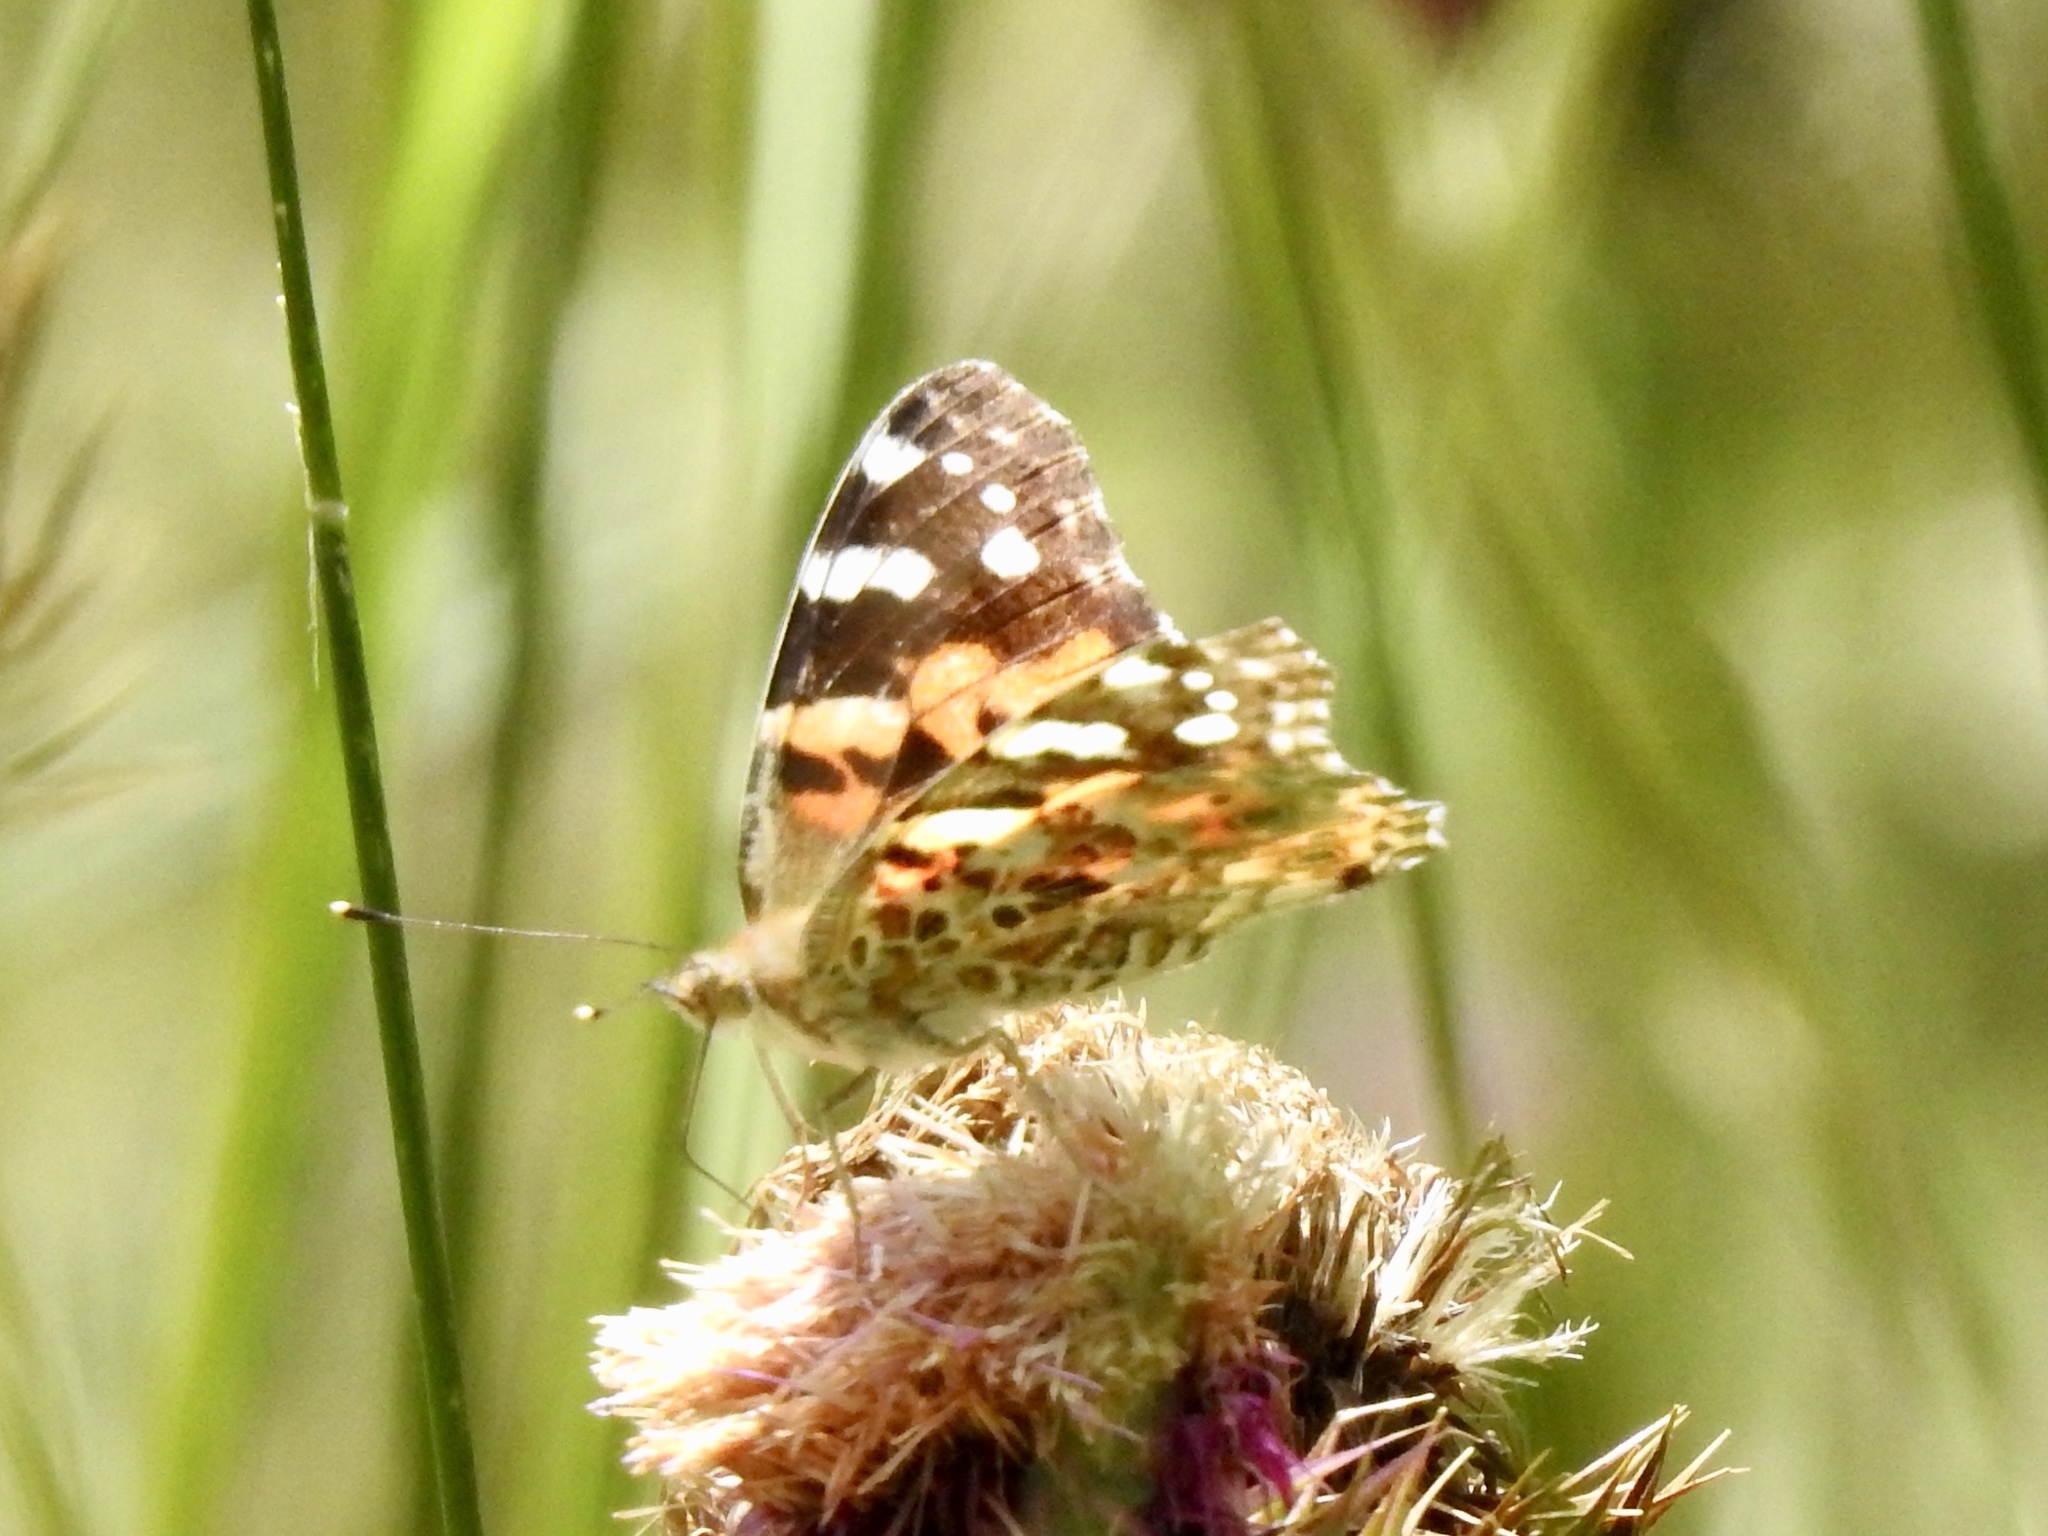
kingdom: Animalia
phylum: Arthropoda
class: Insecta
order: Lepidoptera
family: Nymphalidae
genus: Vanessa
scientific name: Vanessa cardui
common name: Painted lady
